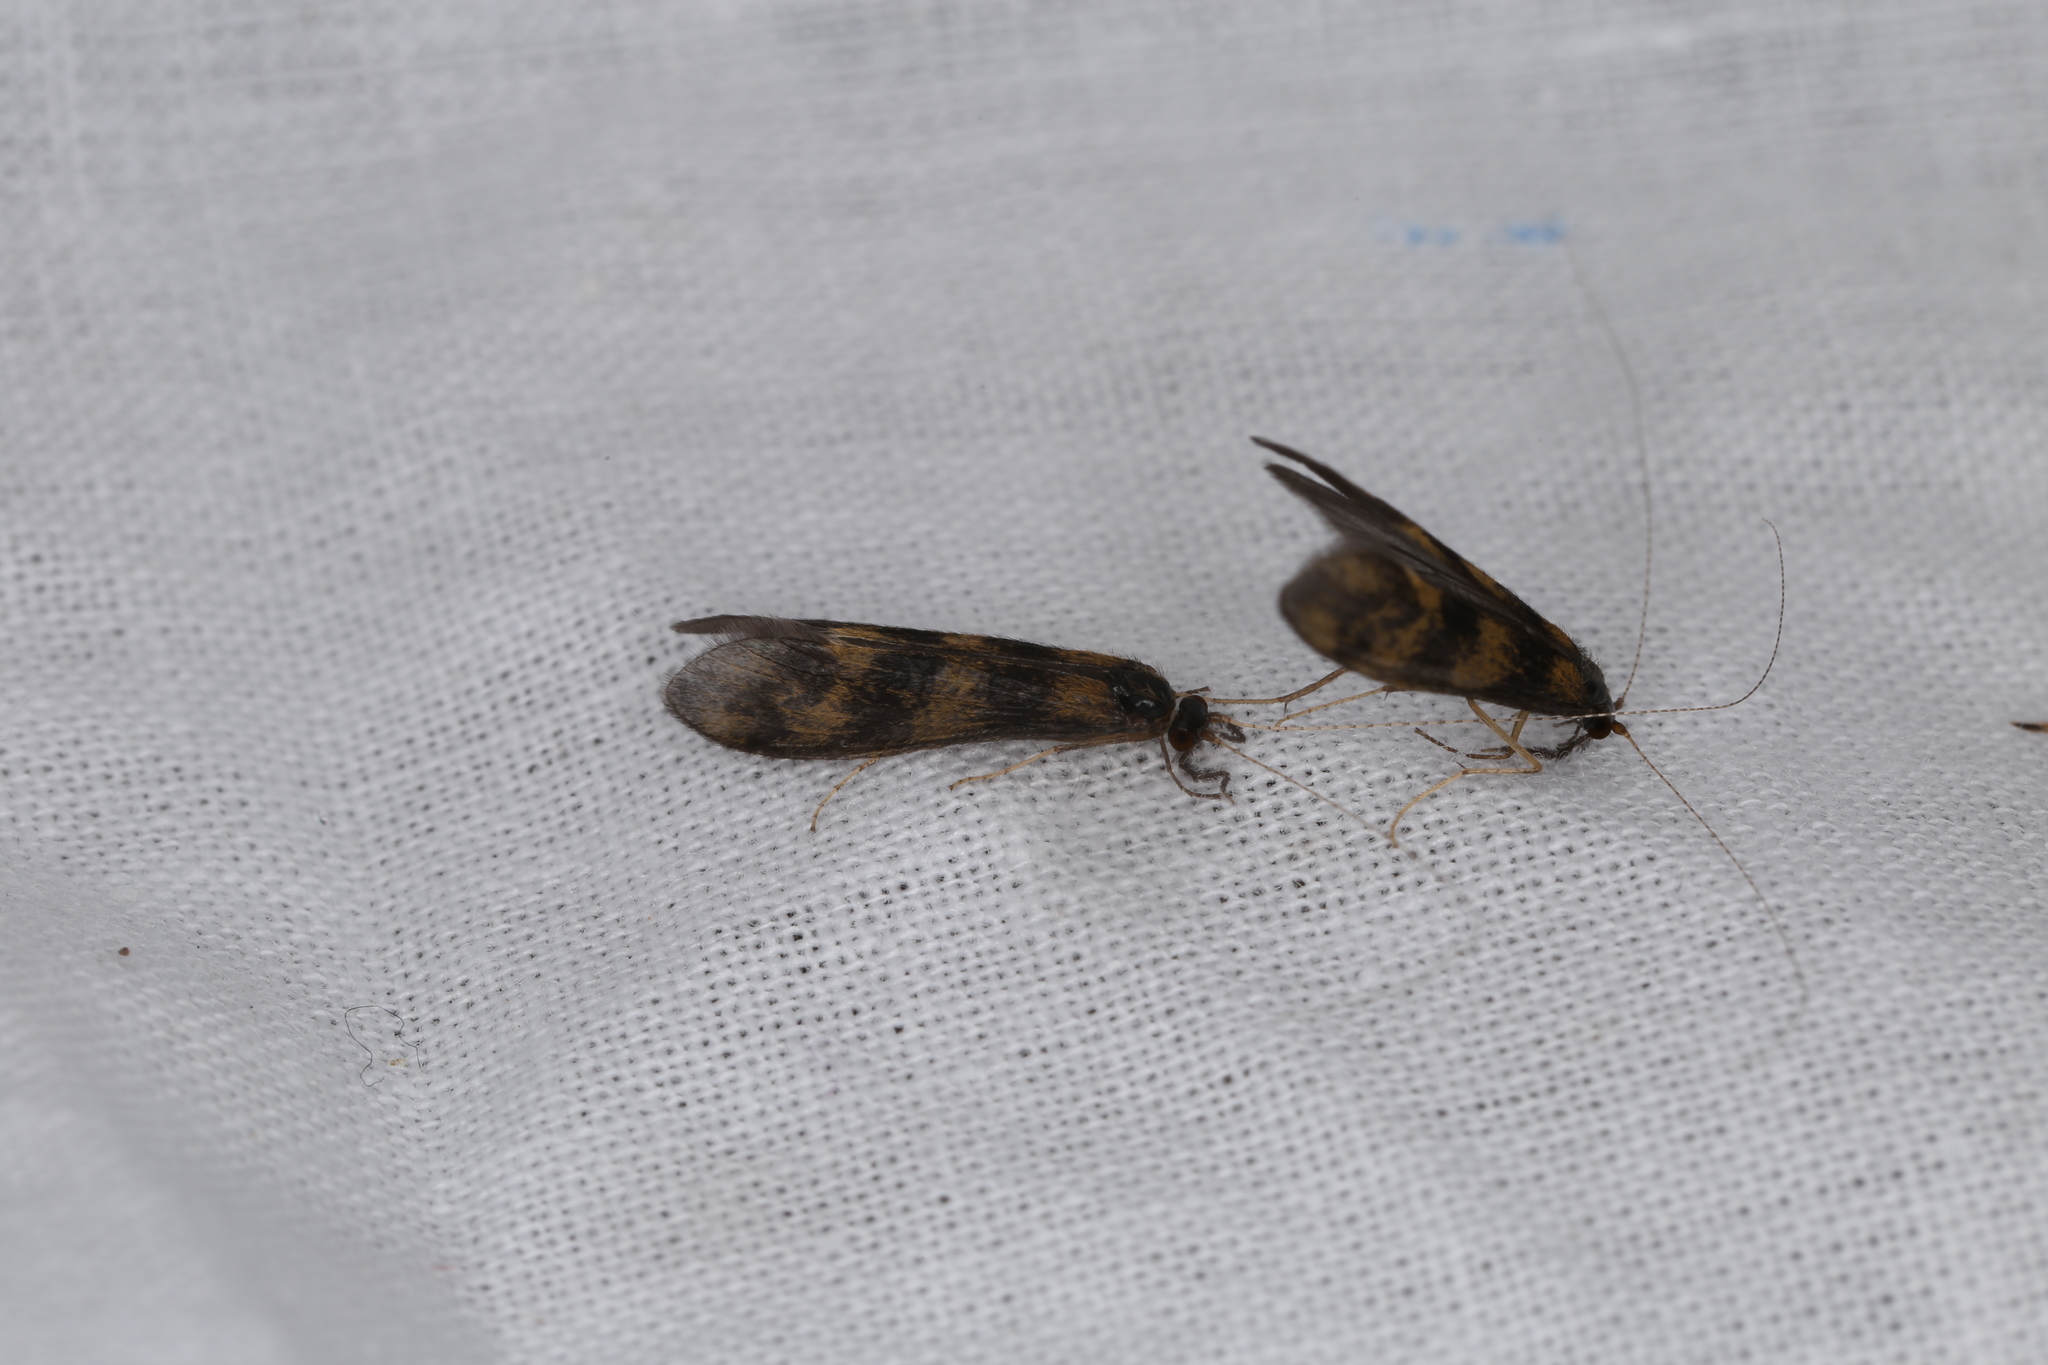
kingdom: Animalia
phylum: Arthropoda
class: Insecta
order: Trichoptera
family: Leptoceridae
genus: Mystacides
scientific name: Mystacides longicornis
